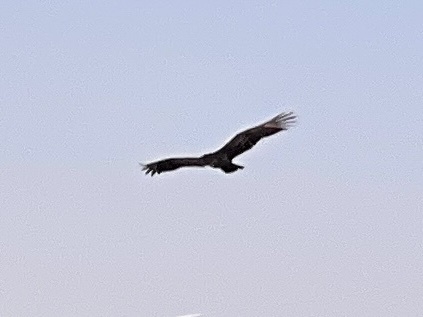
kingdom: Animalia
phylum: Chordata
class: Aves
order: Accipitriformes
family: Cathartidae
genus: Cathartes
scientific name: Cathartes aura
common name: Turkey vulture
